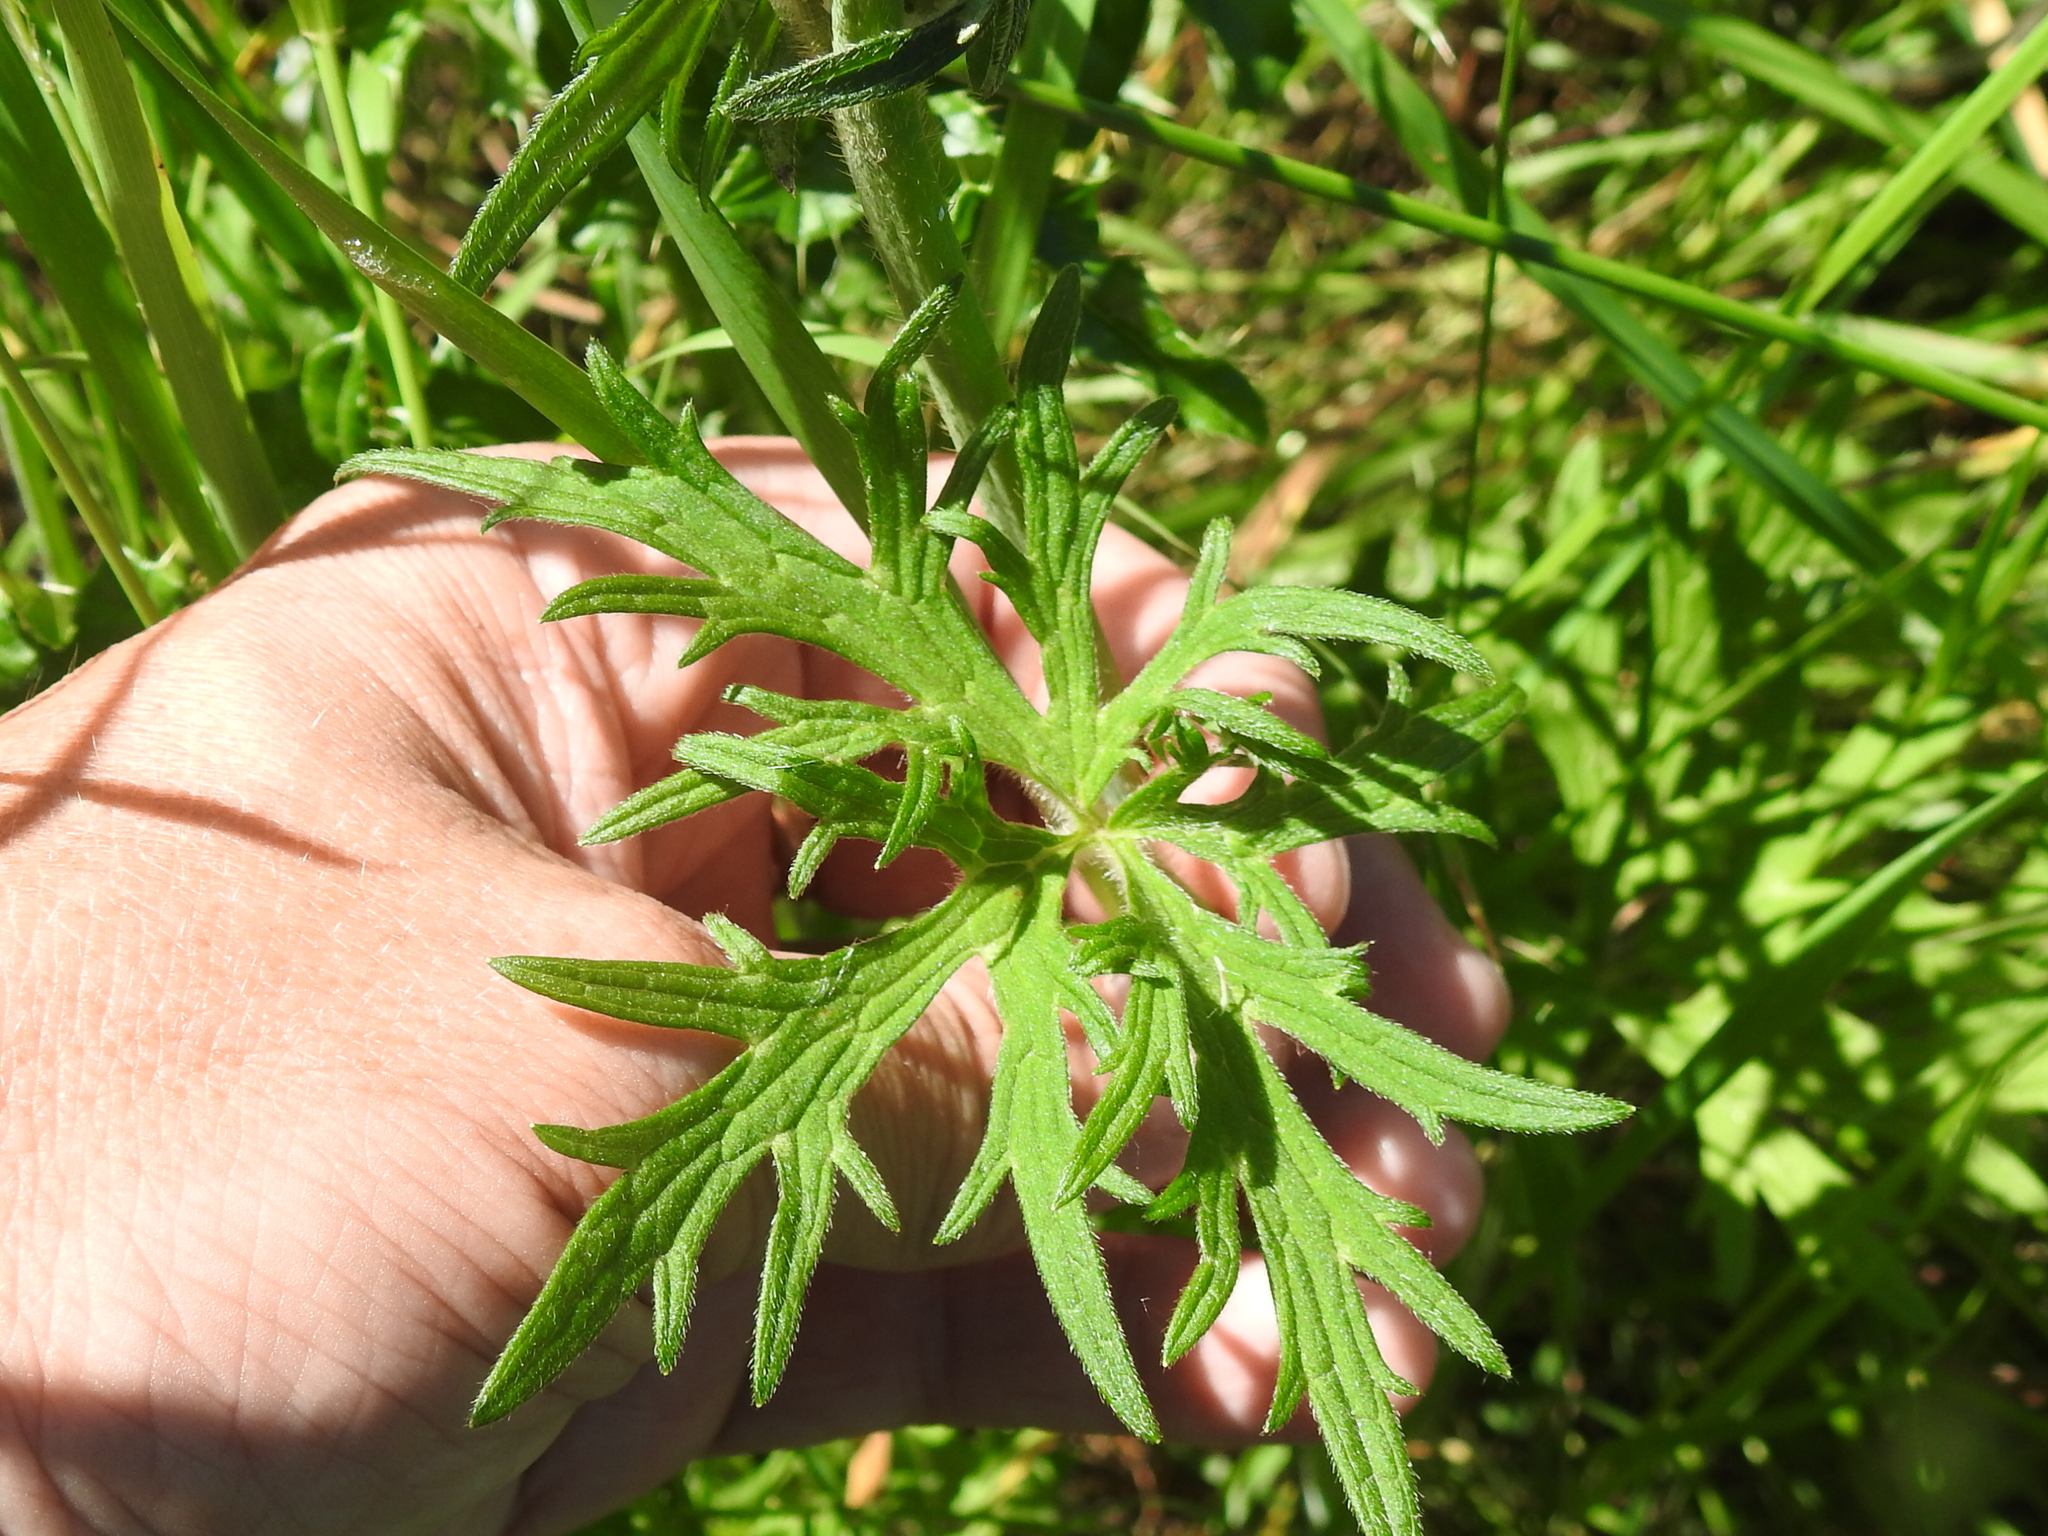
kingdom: Plantae
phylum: Tracheophyta
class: Magnoliopsida
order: Ranunculales
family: Ranunculaceae
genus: Ranunculus
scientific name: Ranunculus acris
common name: Meadow buttercup
